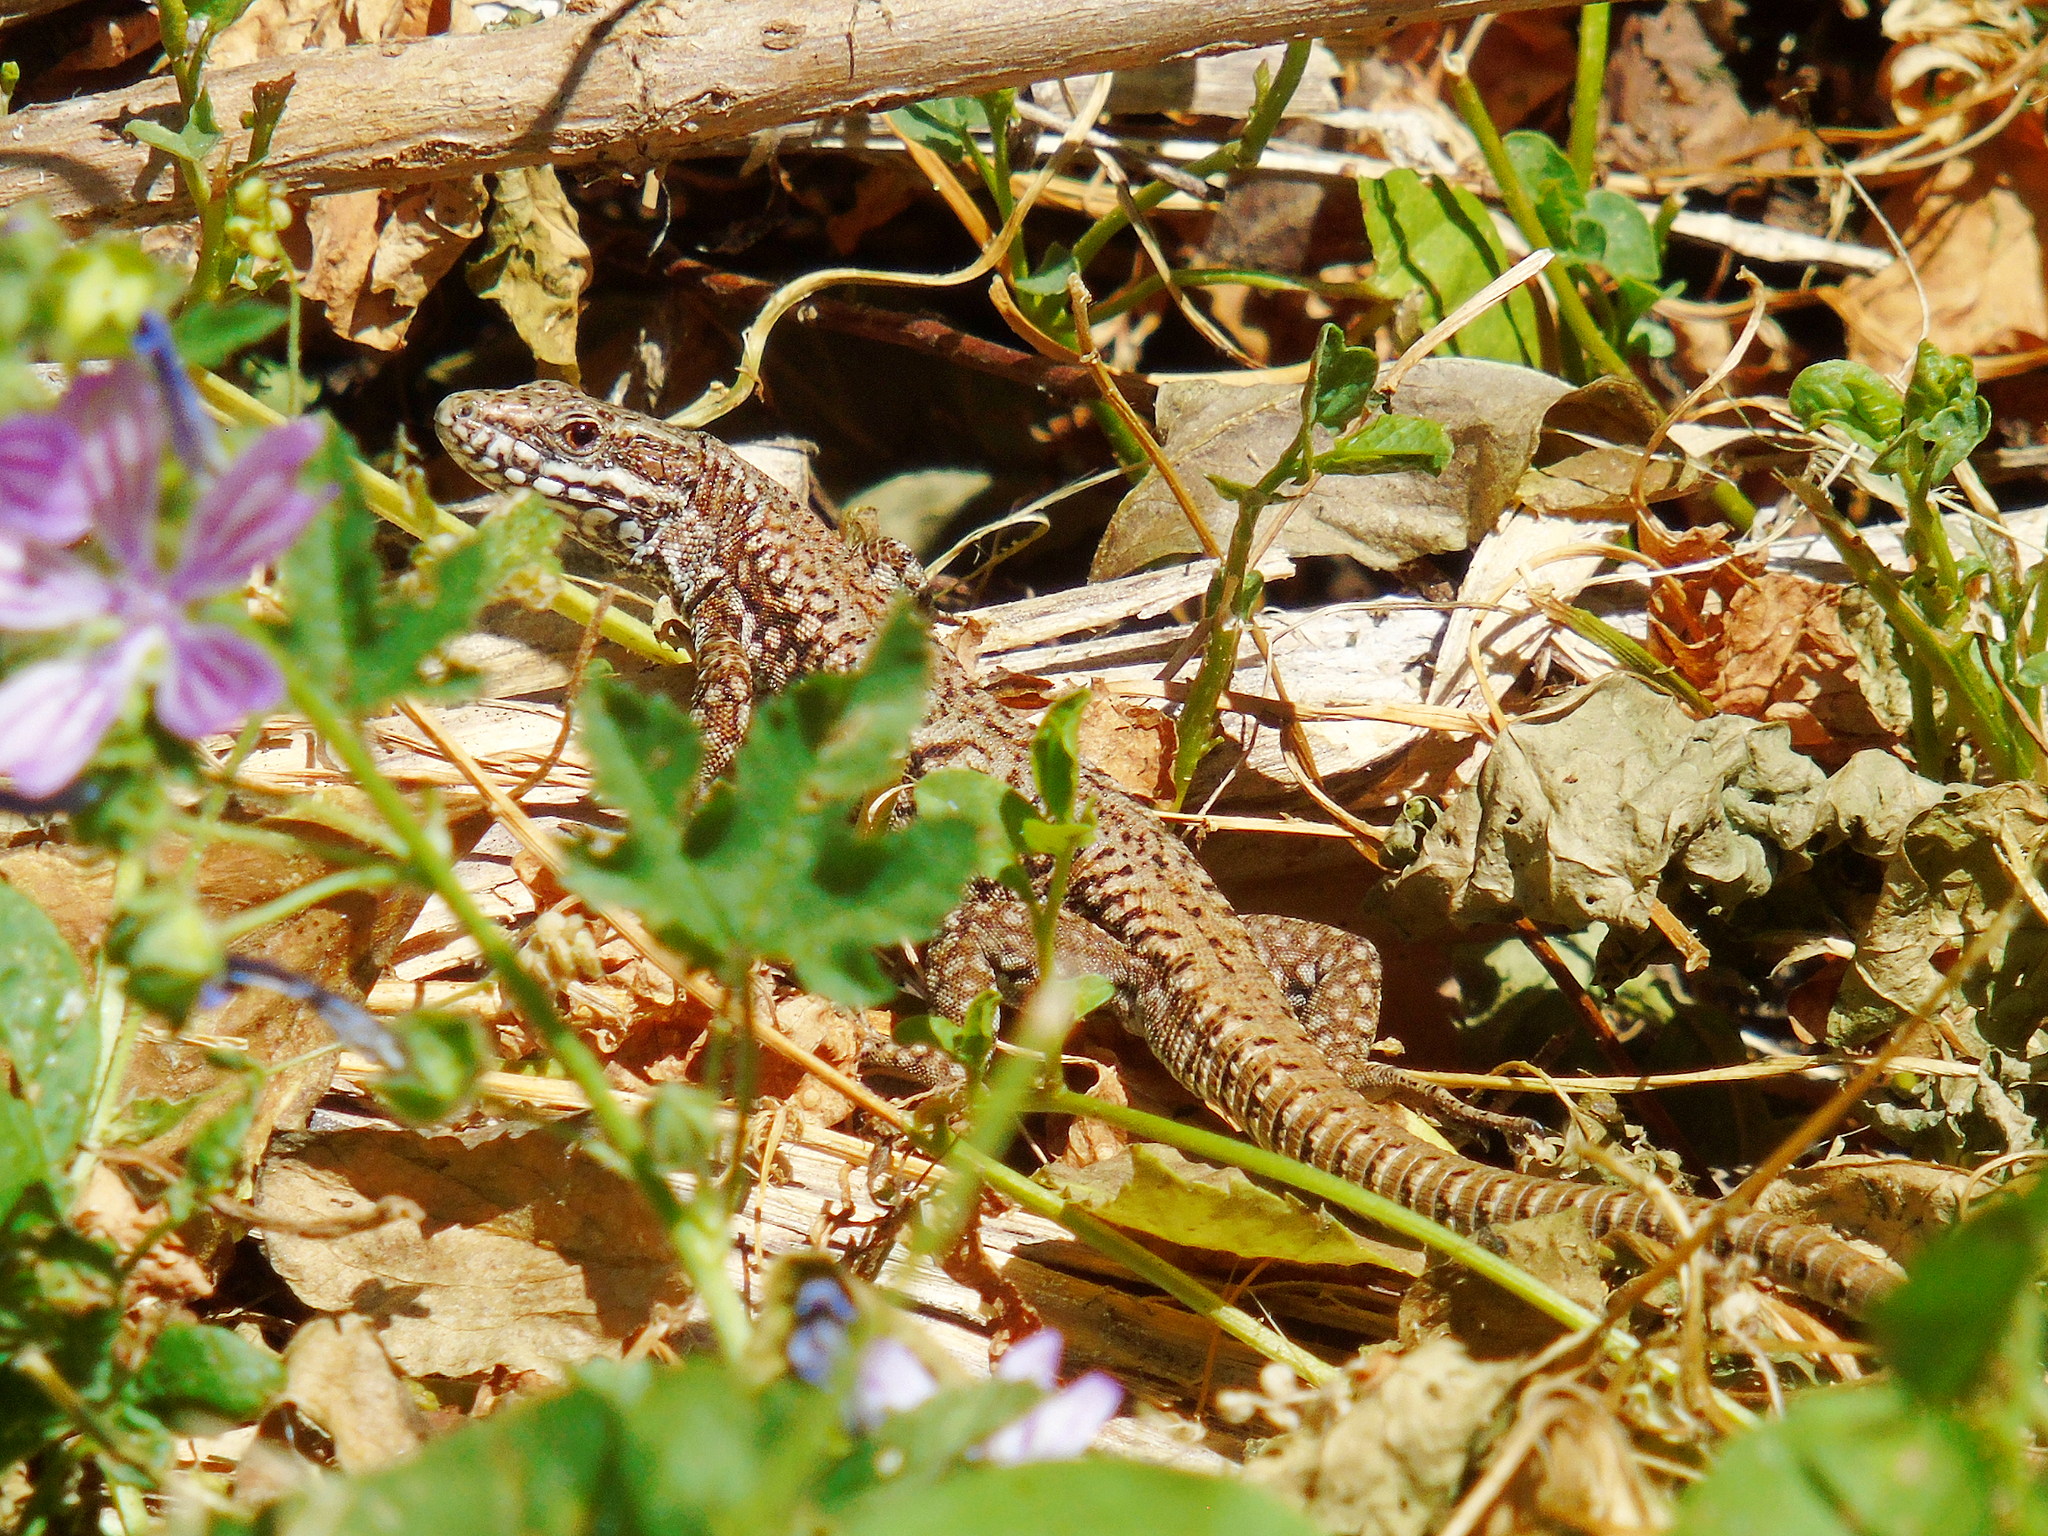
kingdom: Animalia
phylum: Chordata
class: Squamata
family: Lacertidae
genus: Podarcis
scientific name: Podarcis muralis
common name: Common wall lizard
